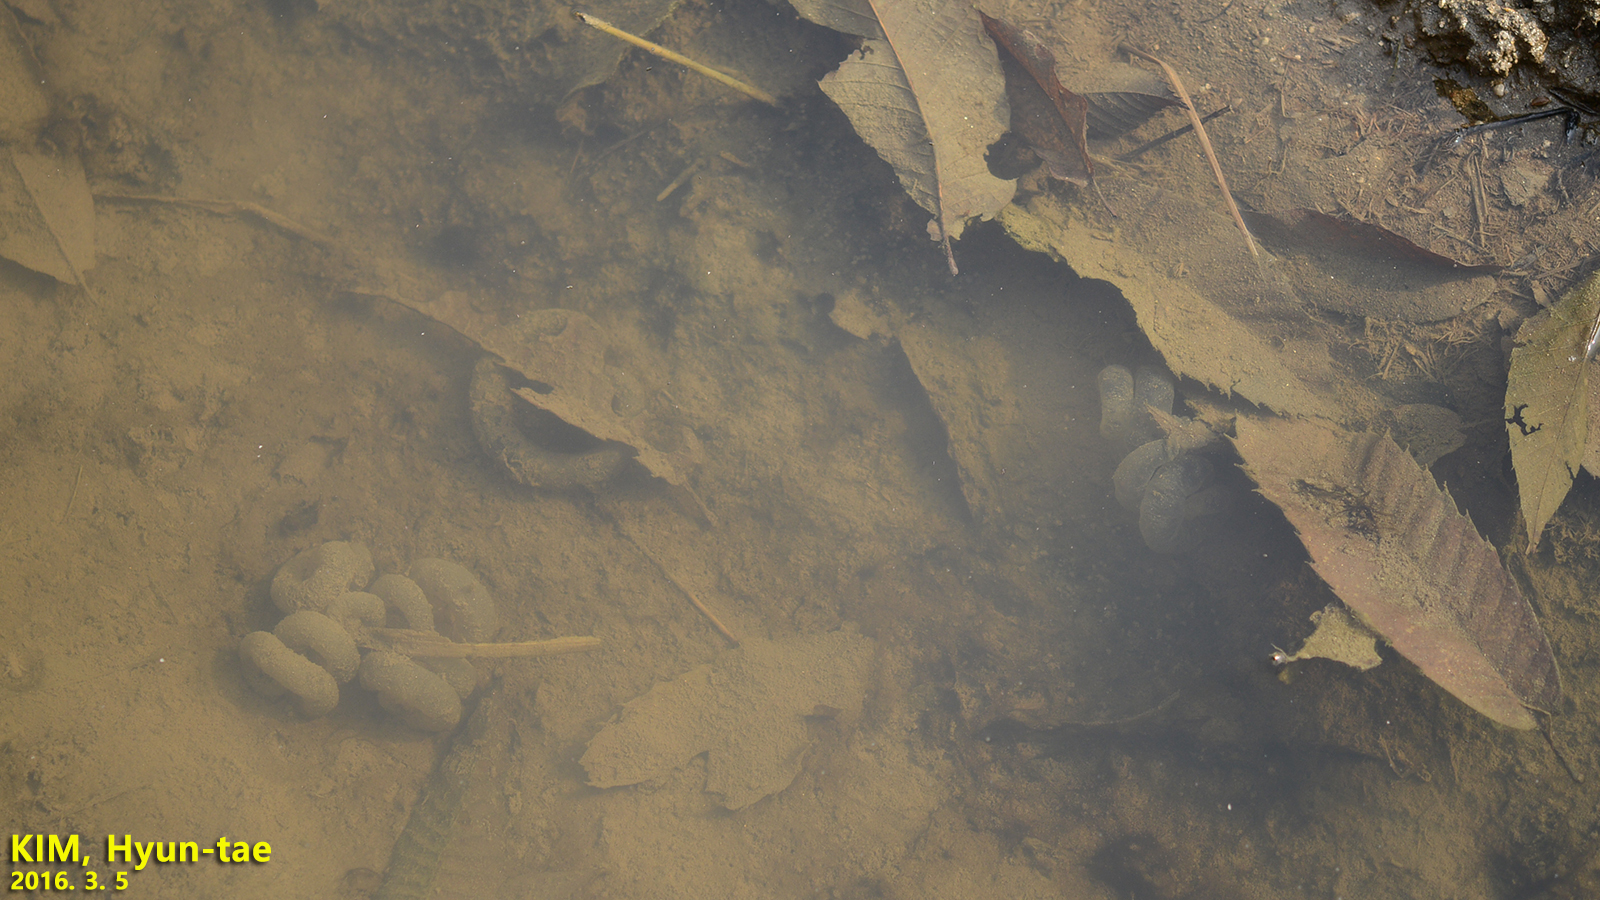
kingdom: Animalia
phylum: Chordata
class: Amphibia
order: Caudata
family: Hynobiidae
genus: Hynobius
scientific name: Hynobius leechii
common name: Gensan salamander
